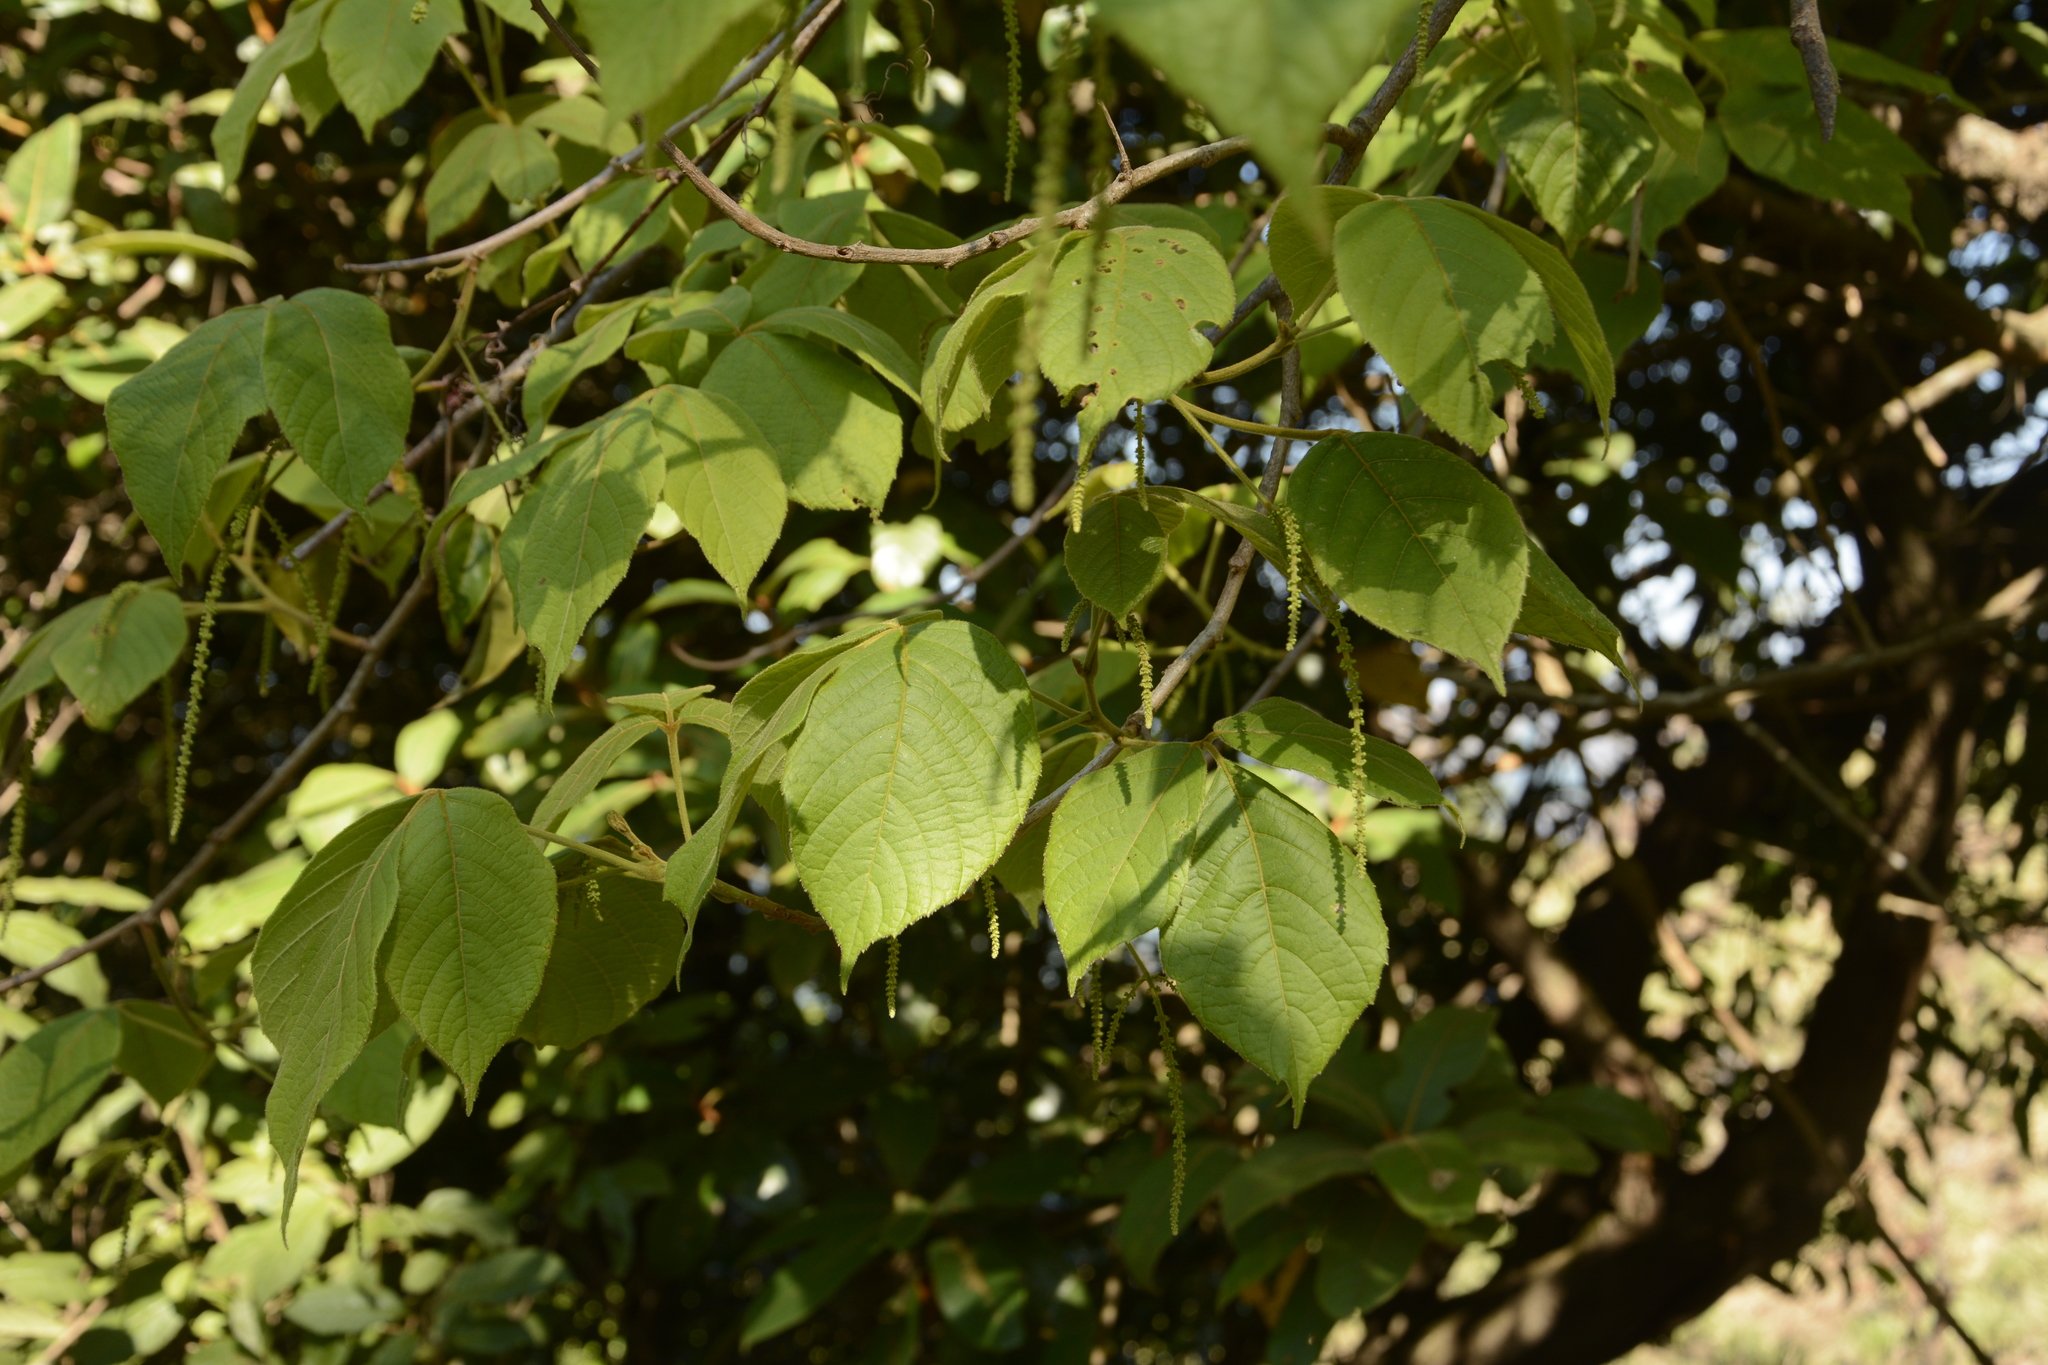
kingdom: Plantae
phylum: Tracheophyta
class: Magnoliopsida
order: Sapindales
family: Sapindaceae
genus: Allophylus
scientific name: Allophylus cobbe
